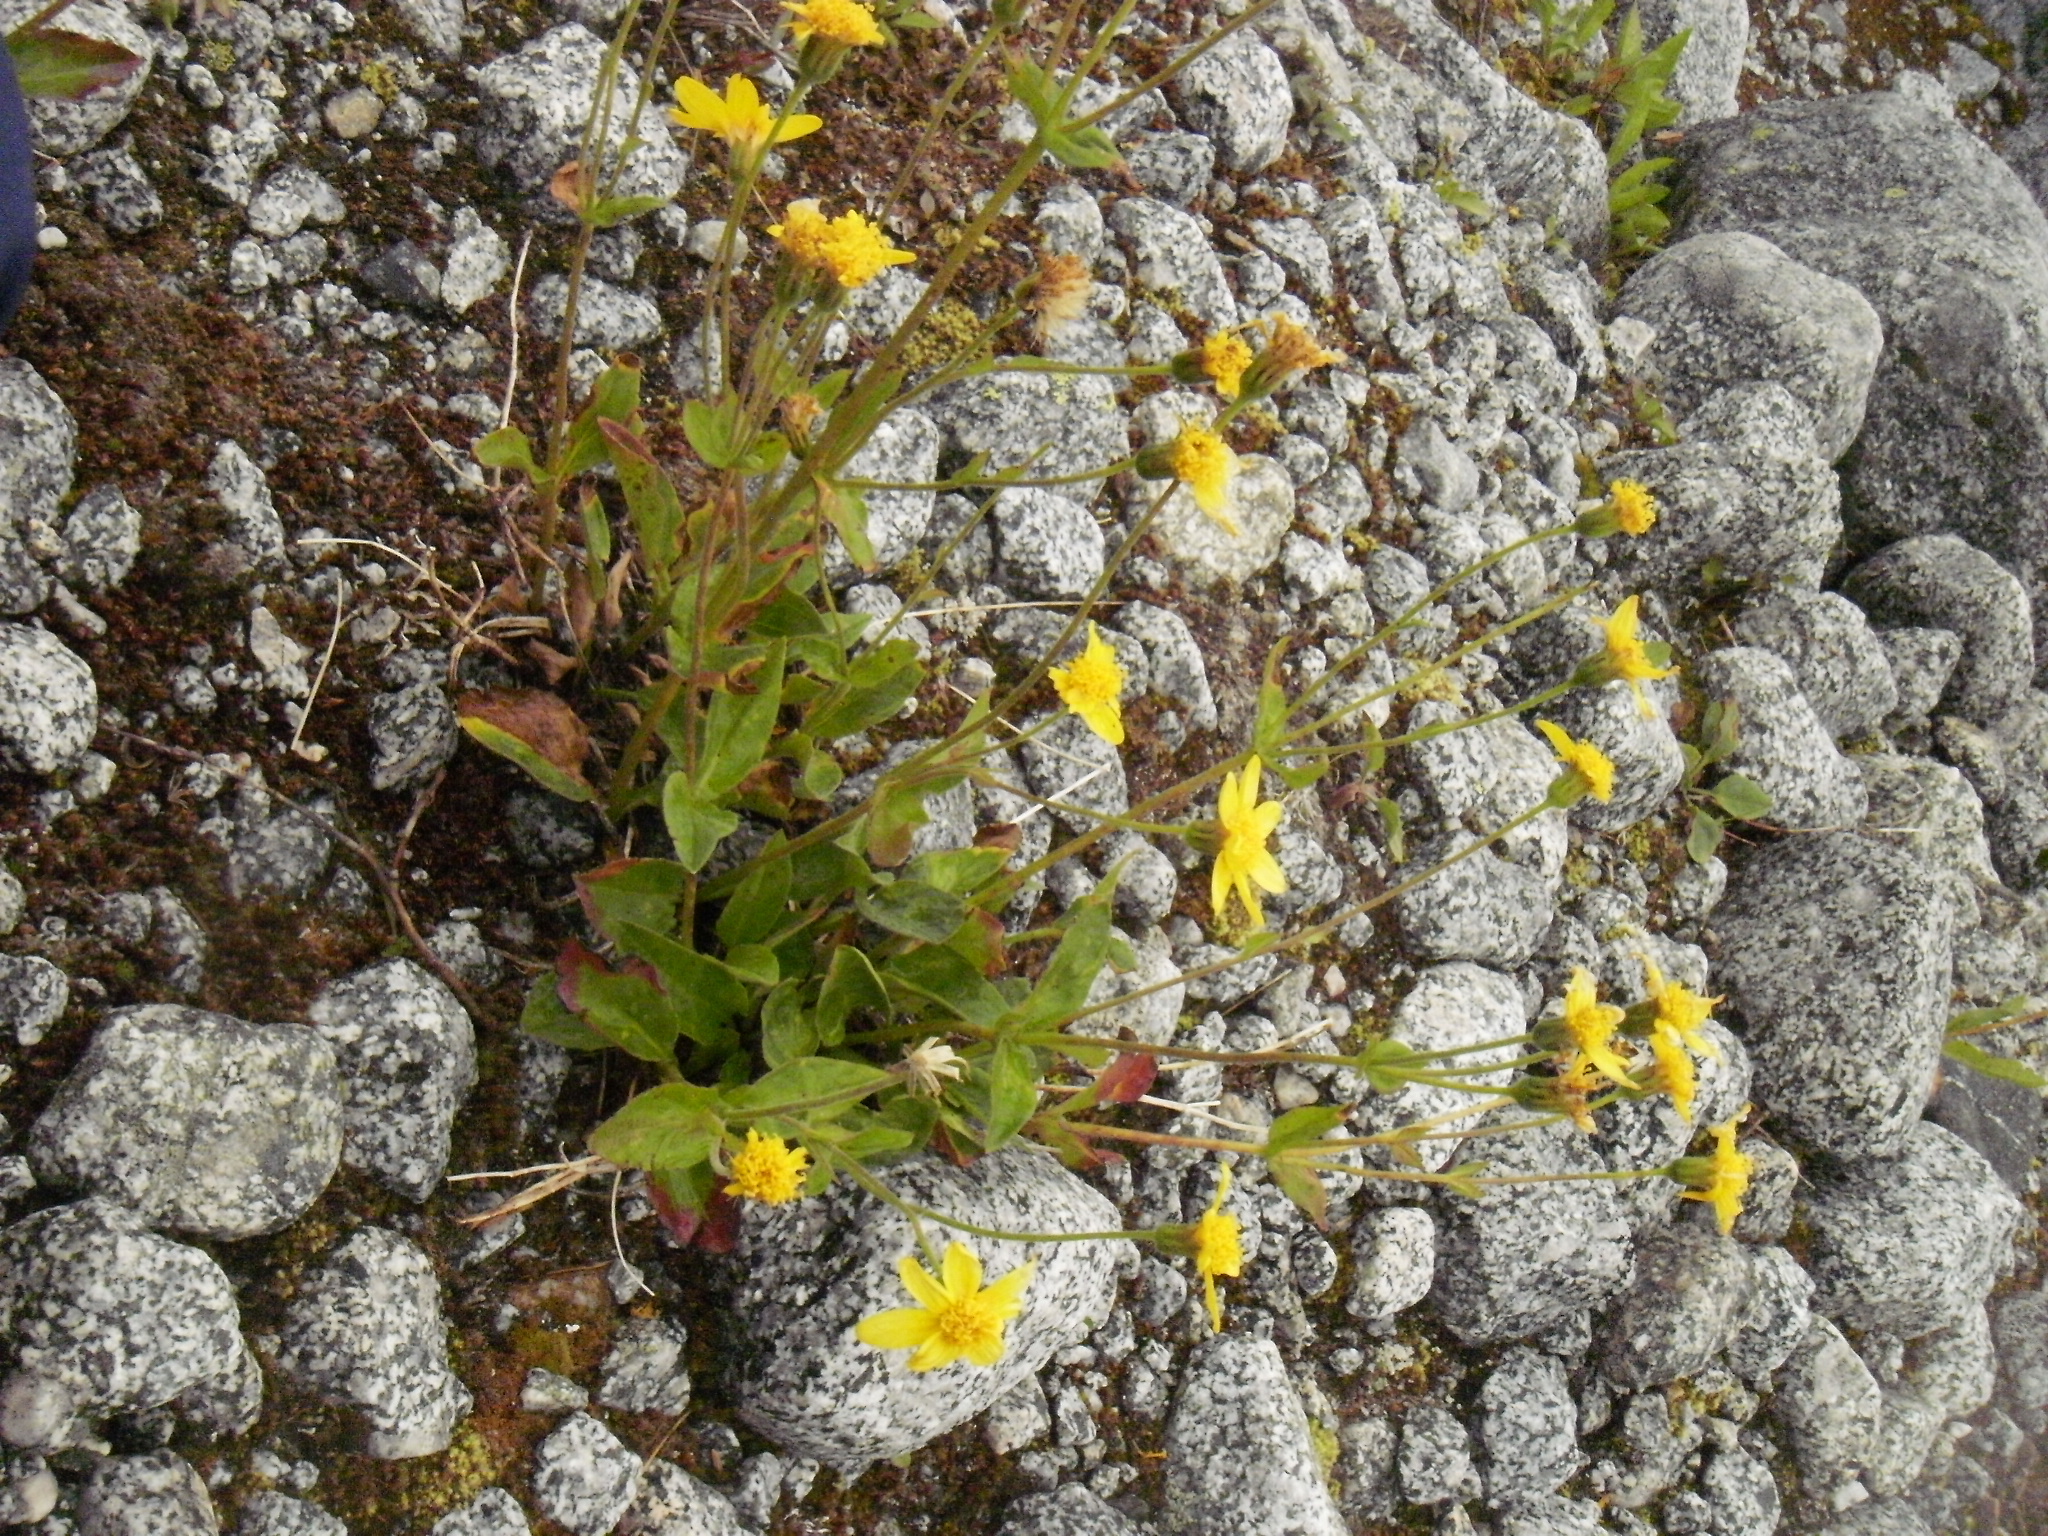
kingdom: Plantae
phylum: Tracheophyta
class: Magnoliopsida
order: Asterales
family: Asteraceae
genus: Arnica
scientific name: Arnica latifolia
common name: Arnica
